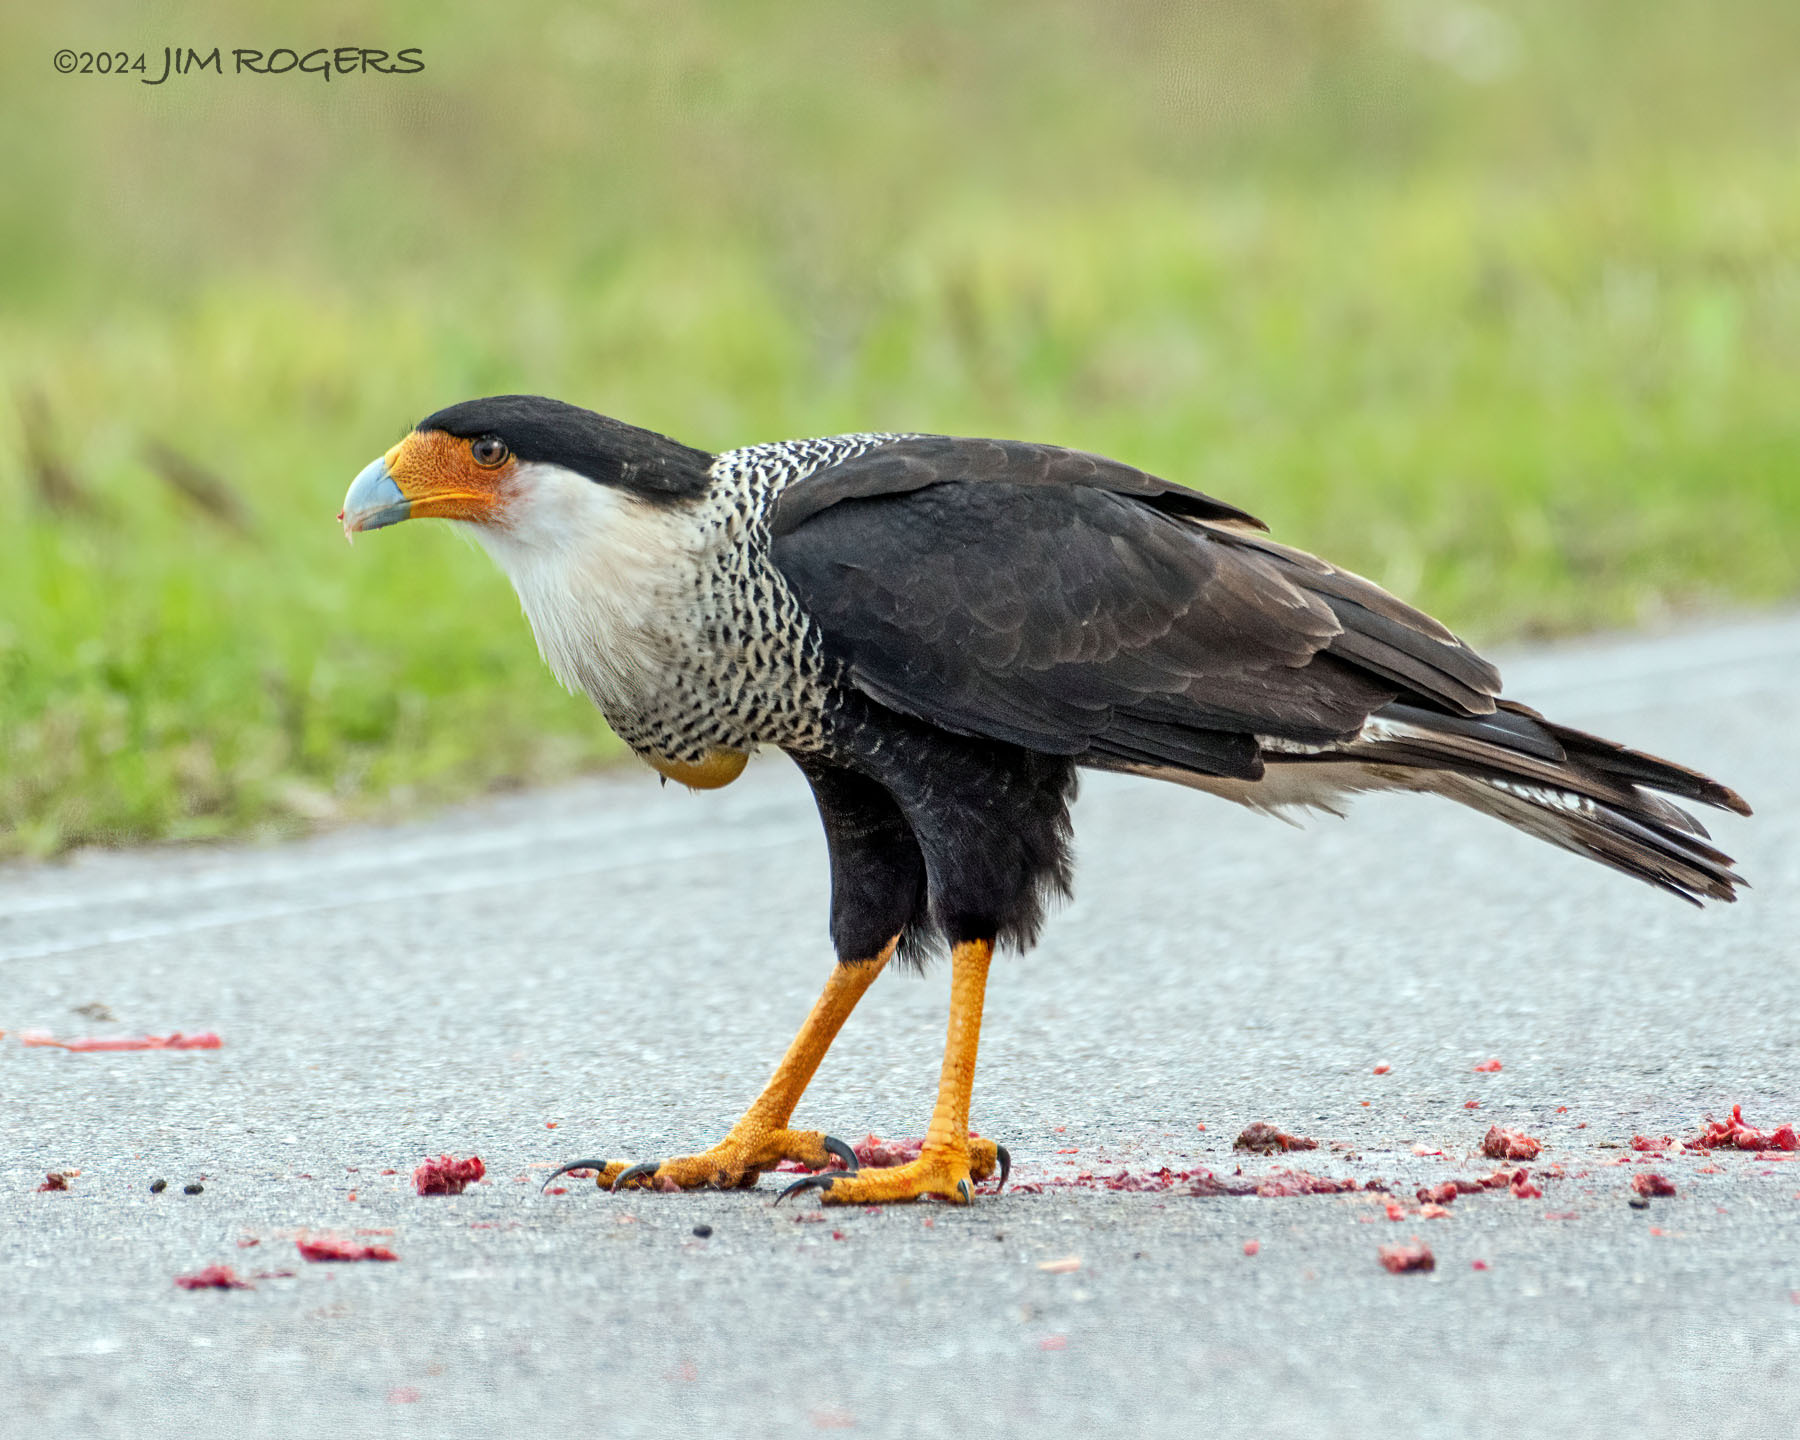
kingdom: Animalia
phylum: Chordata
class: Aves
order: Falconiformes
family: Falconidae
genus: Caracara
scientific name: Caracara plancus
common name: Southern caracara
